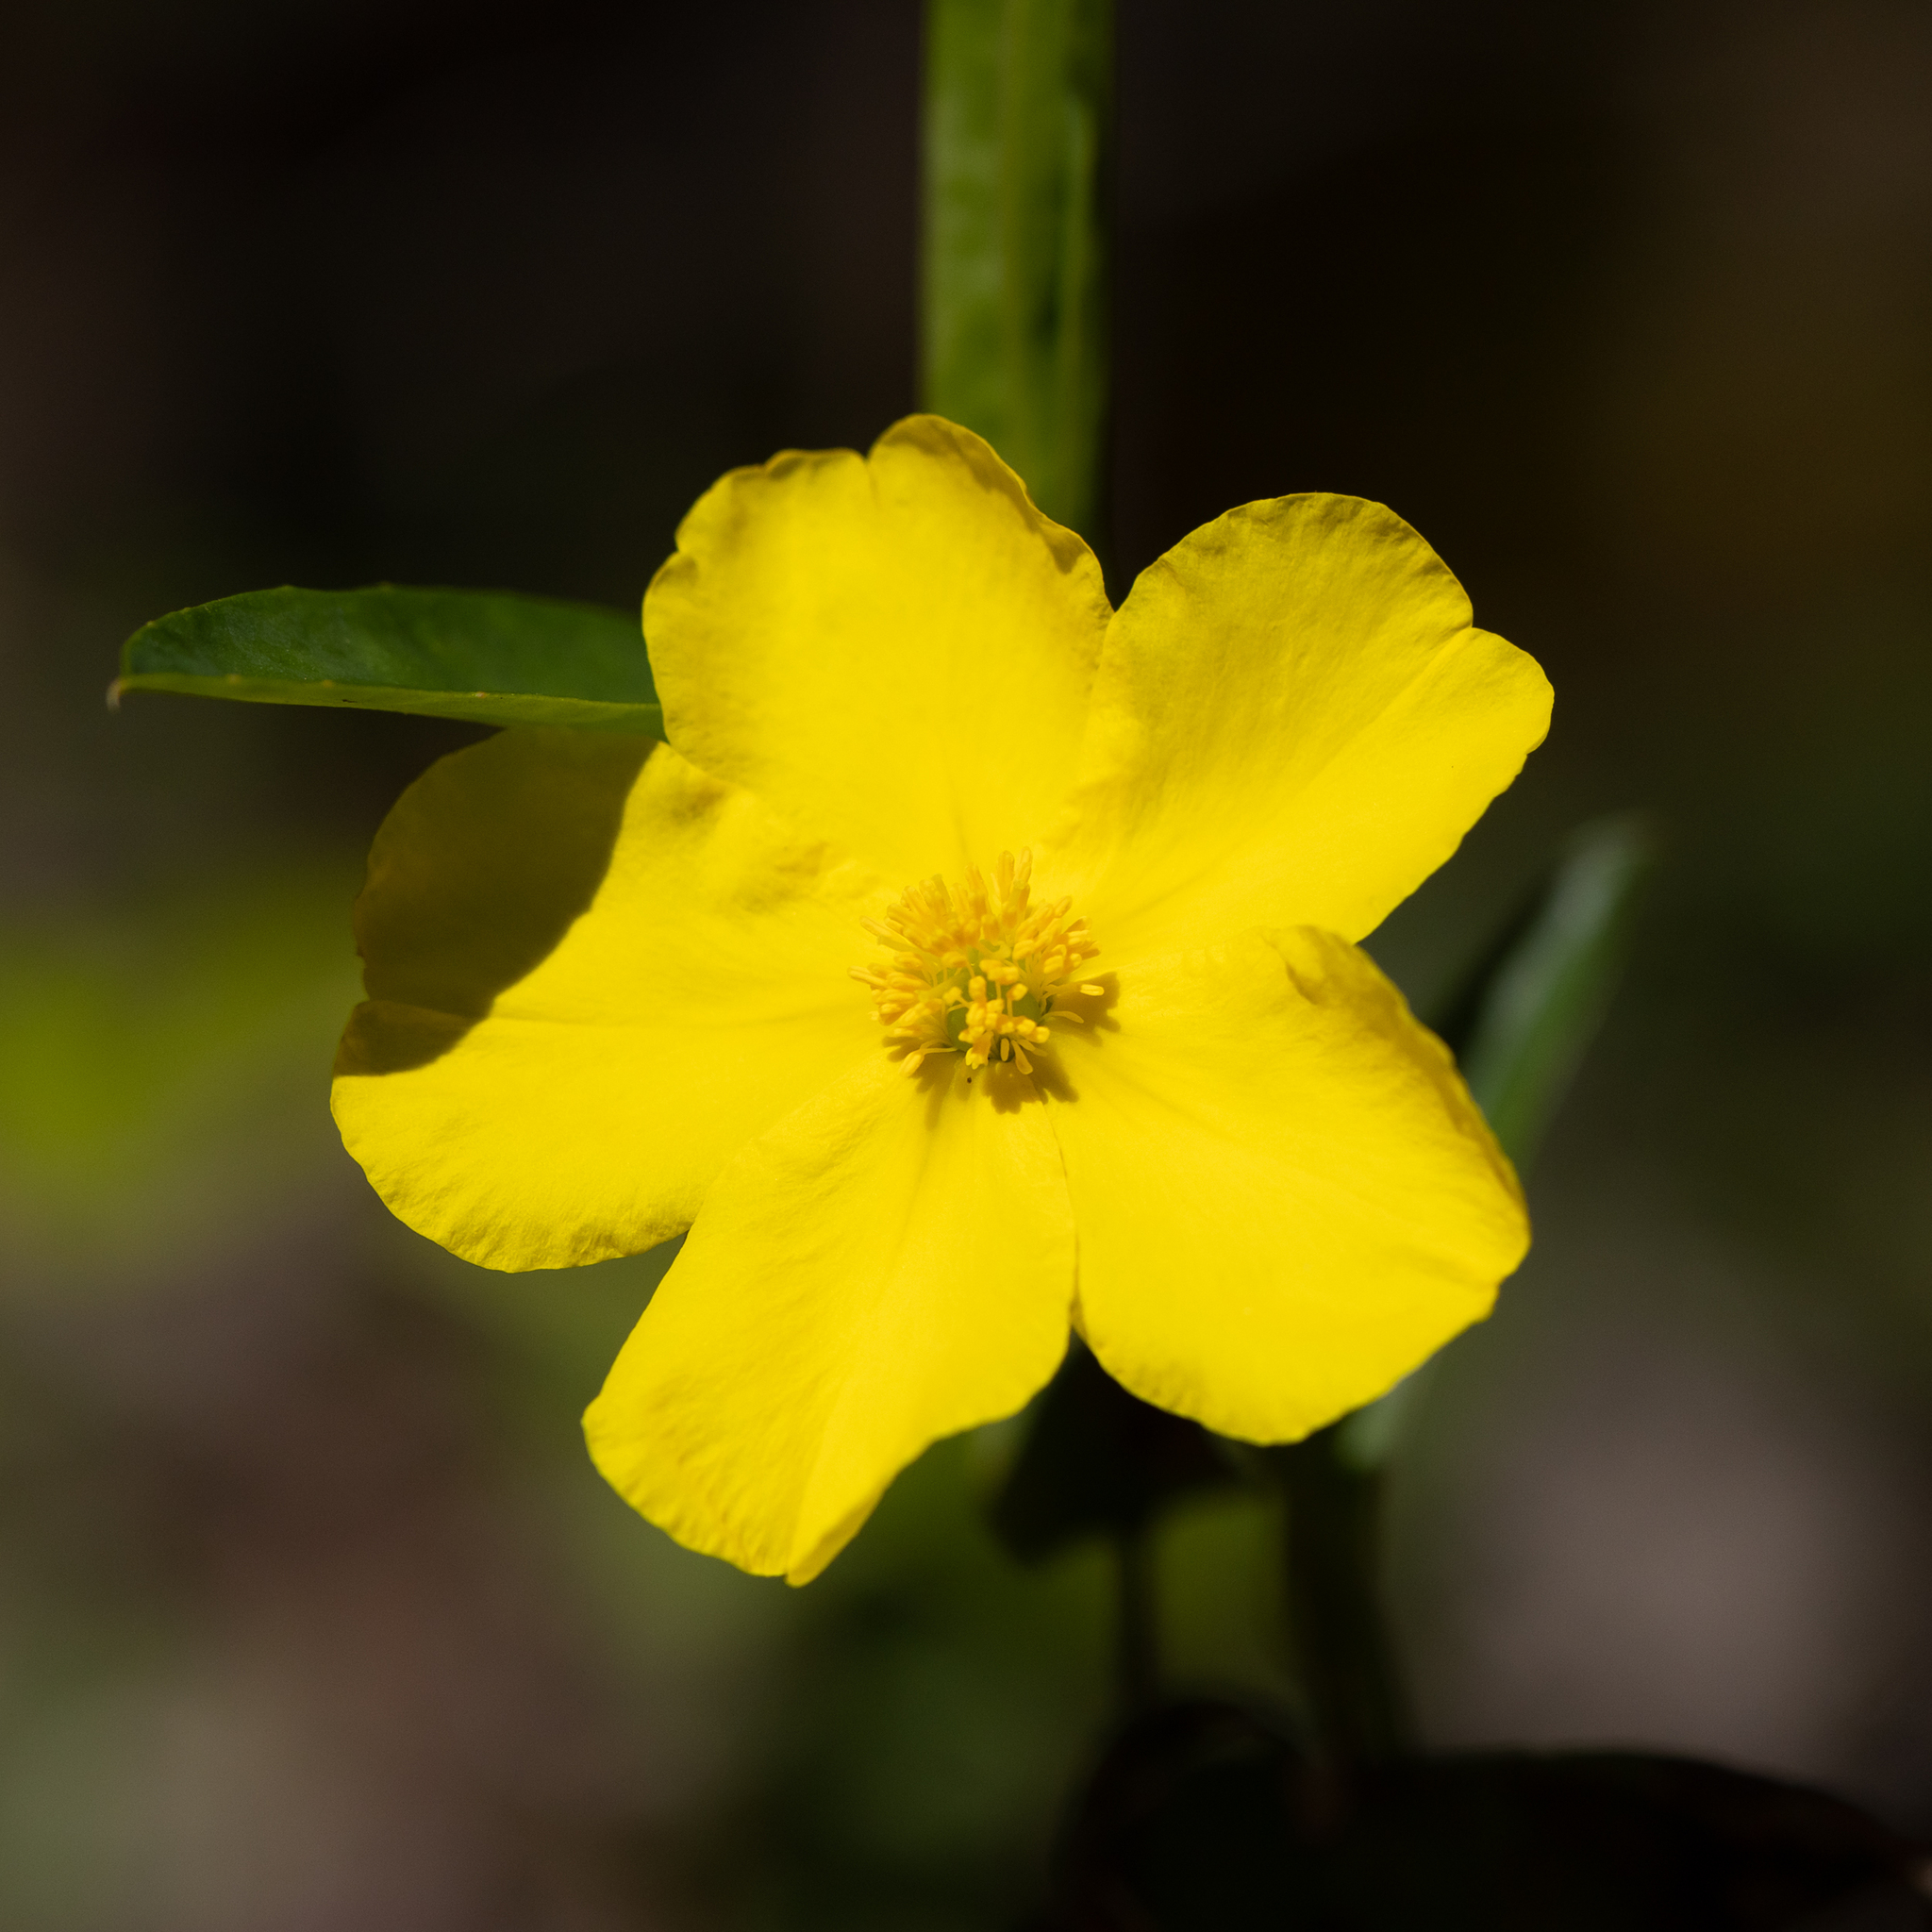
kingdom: Plantae
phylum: Tracheophyta
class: Magnoliopsida
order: Dilleniales
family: Dilleniaceae
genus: Hibbertia
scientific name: Hibbertia cunninghamii
